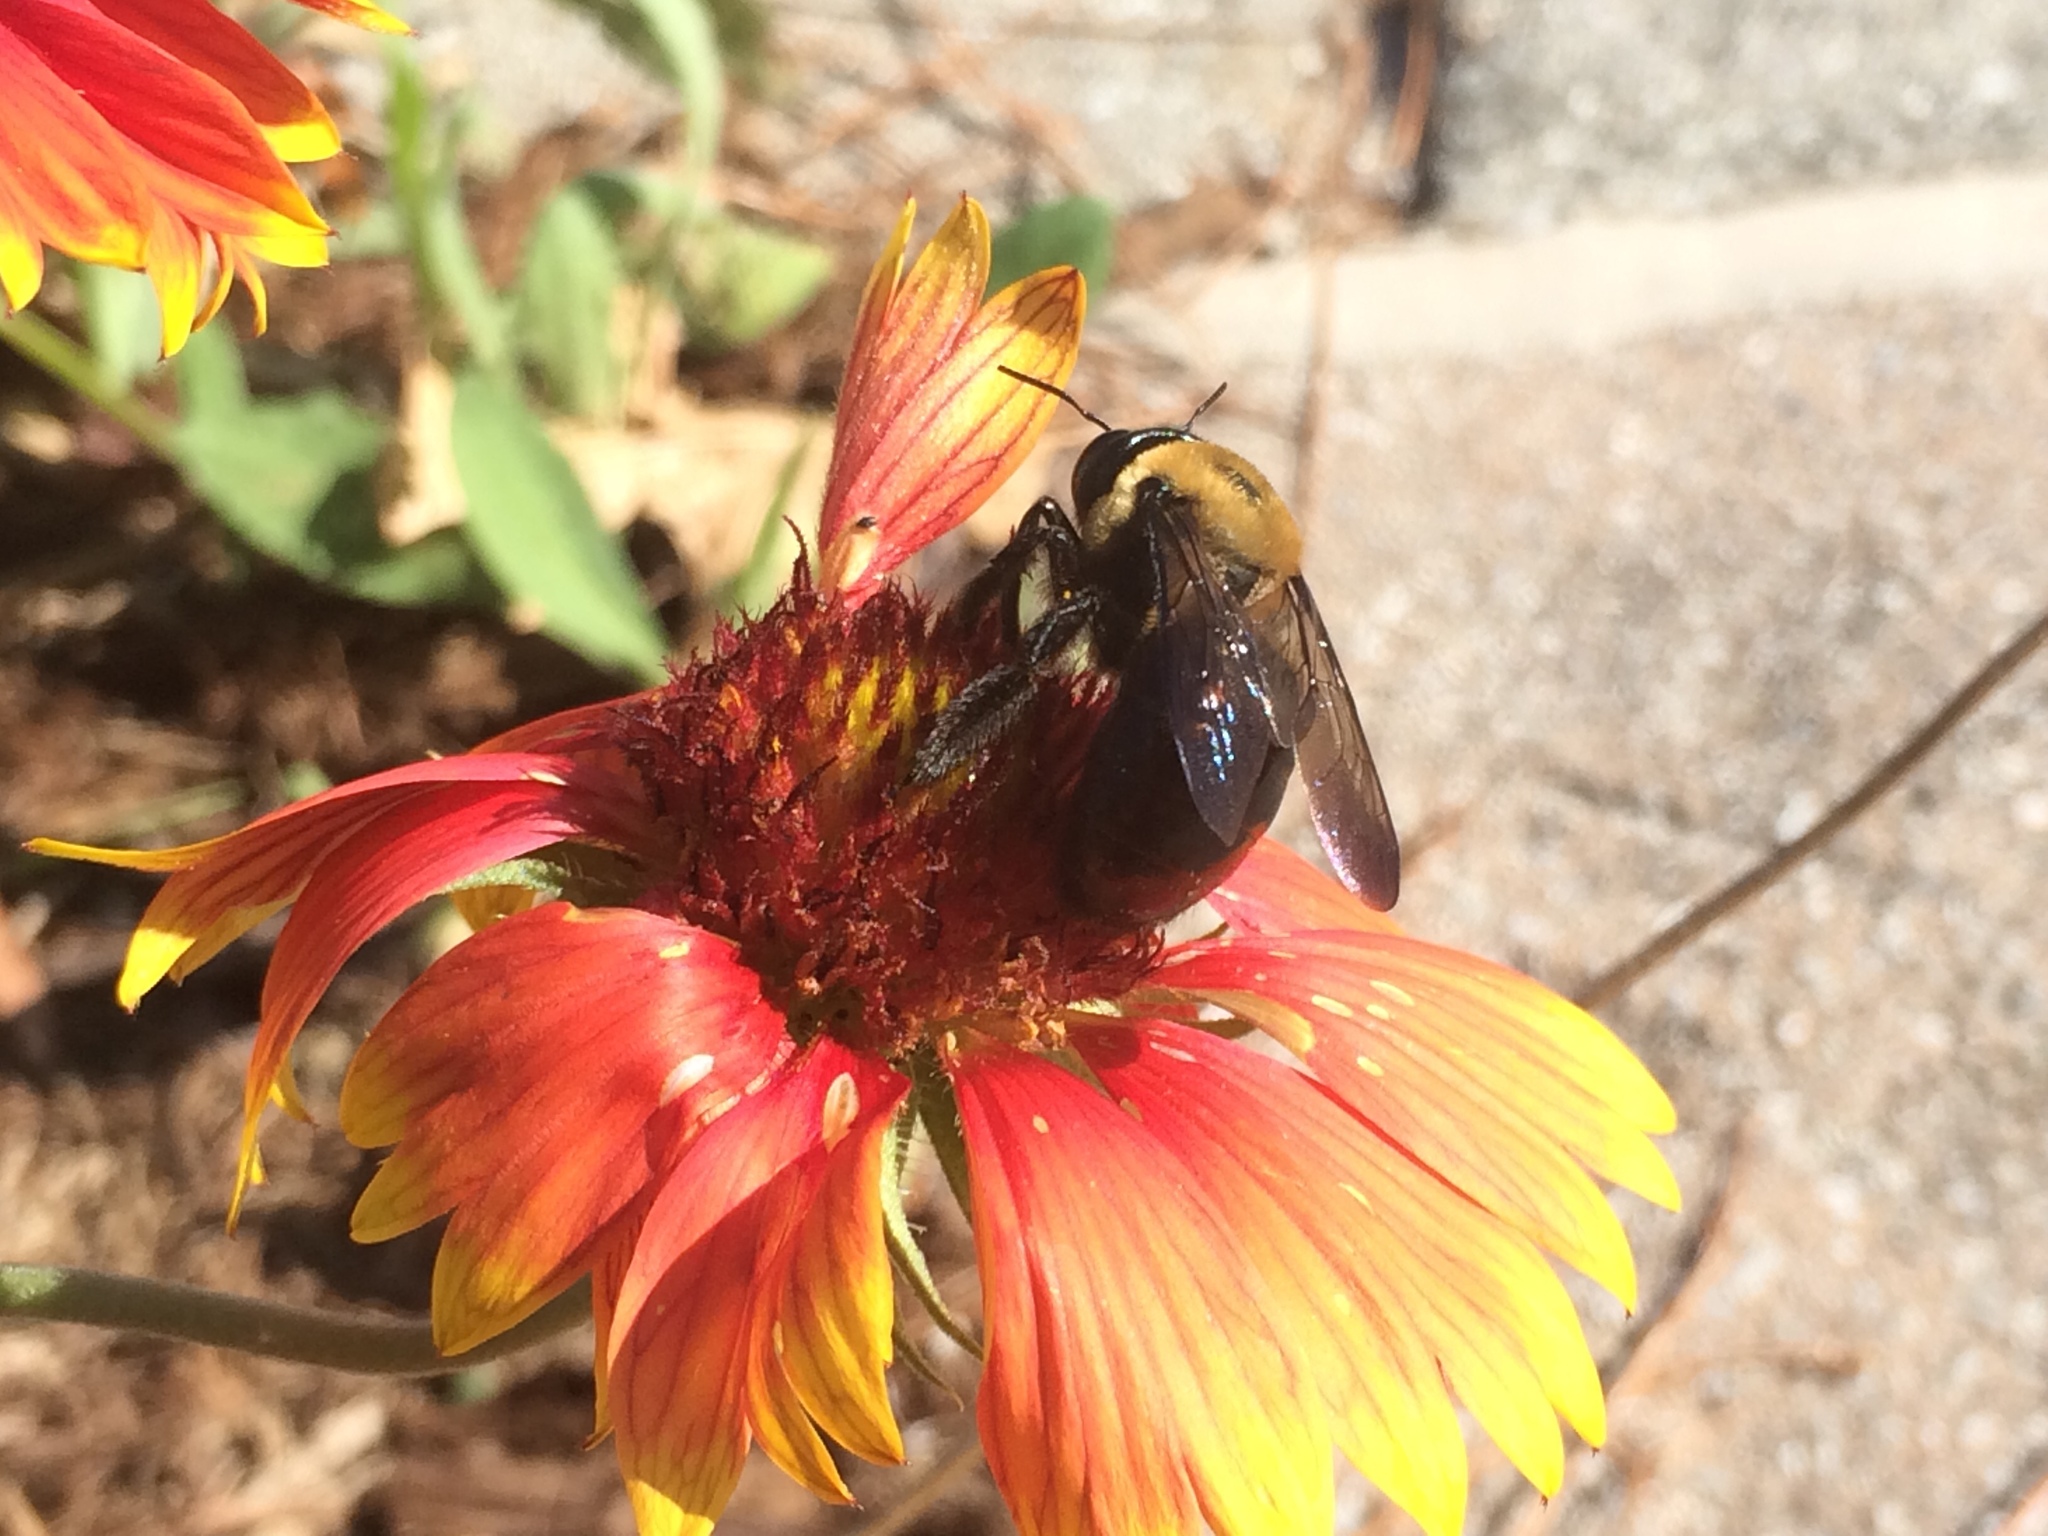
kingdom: Animalia
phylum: Arthropoda
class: Insecta
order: Hymenoptera
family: Apidae
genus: Xylocopa
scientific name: Xylocopa virginica
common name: Carpenter bee
